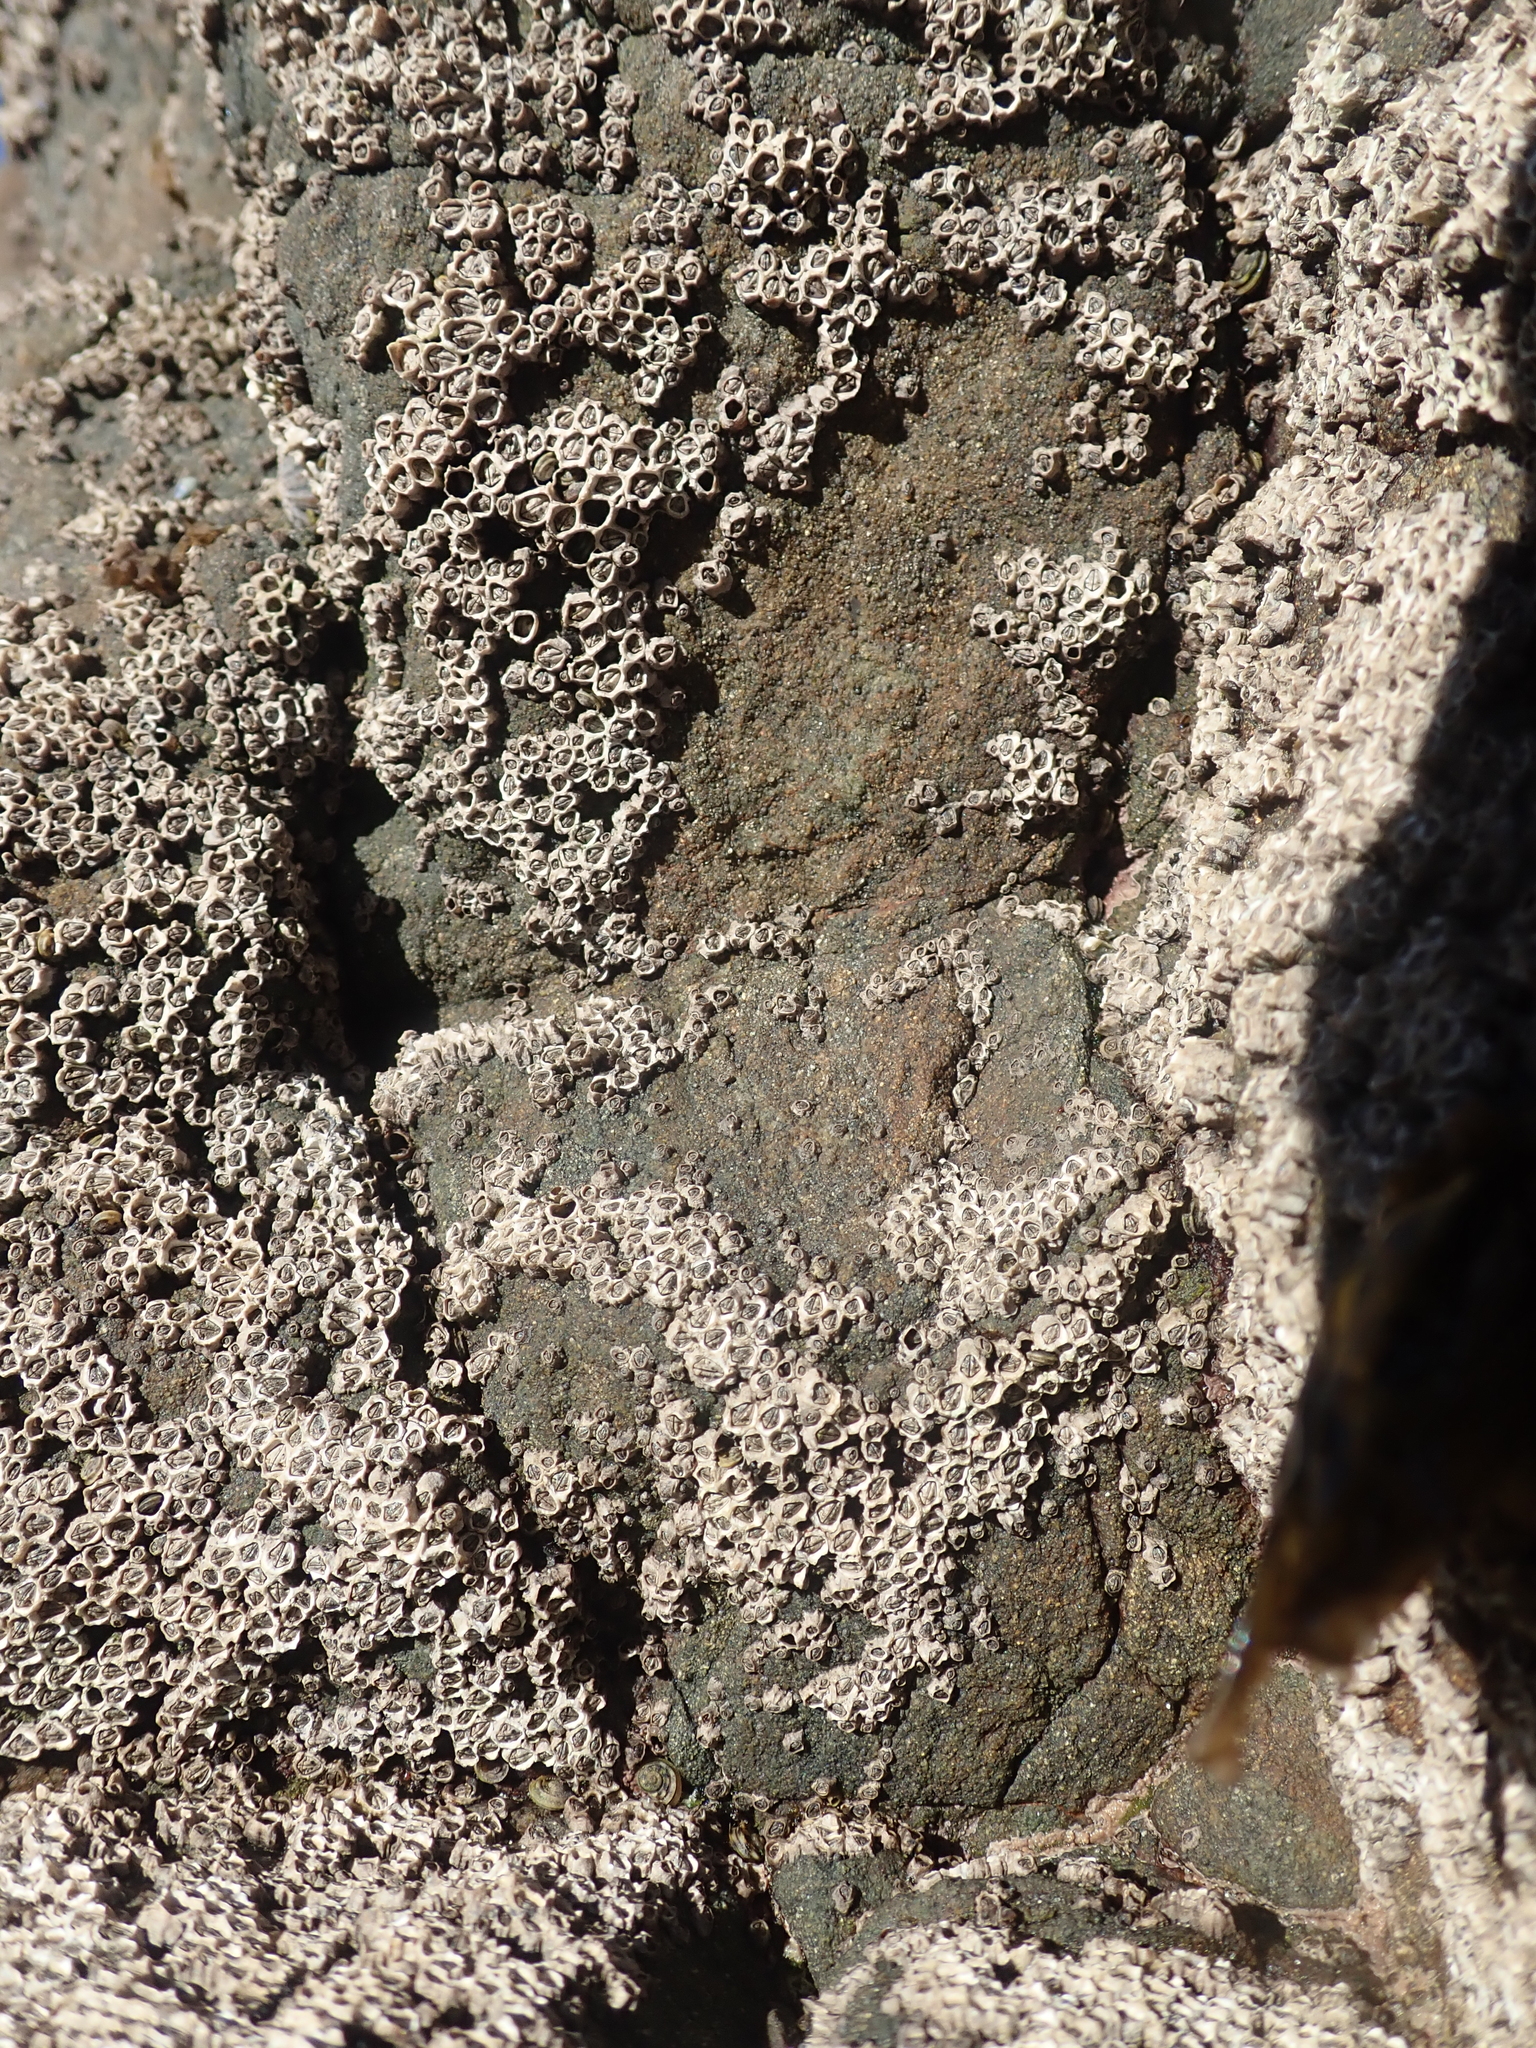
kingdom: Animalia
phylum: Arthropoda
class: Maxillopoda
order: Sessilia
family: Chthamalidae
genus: Chamaesipho
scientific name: Chamaesipho columna
